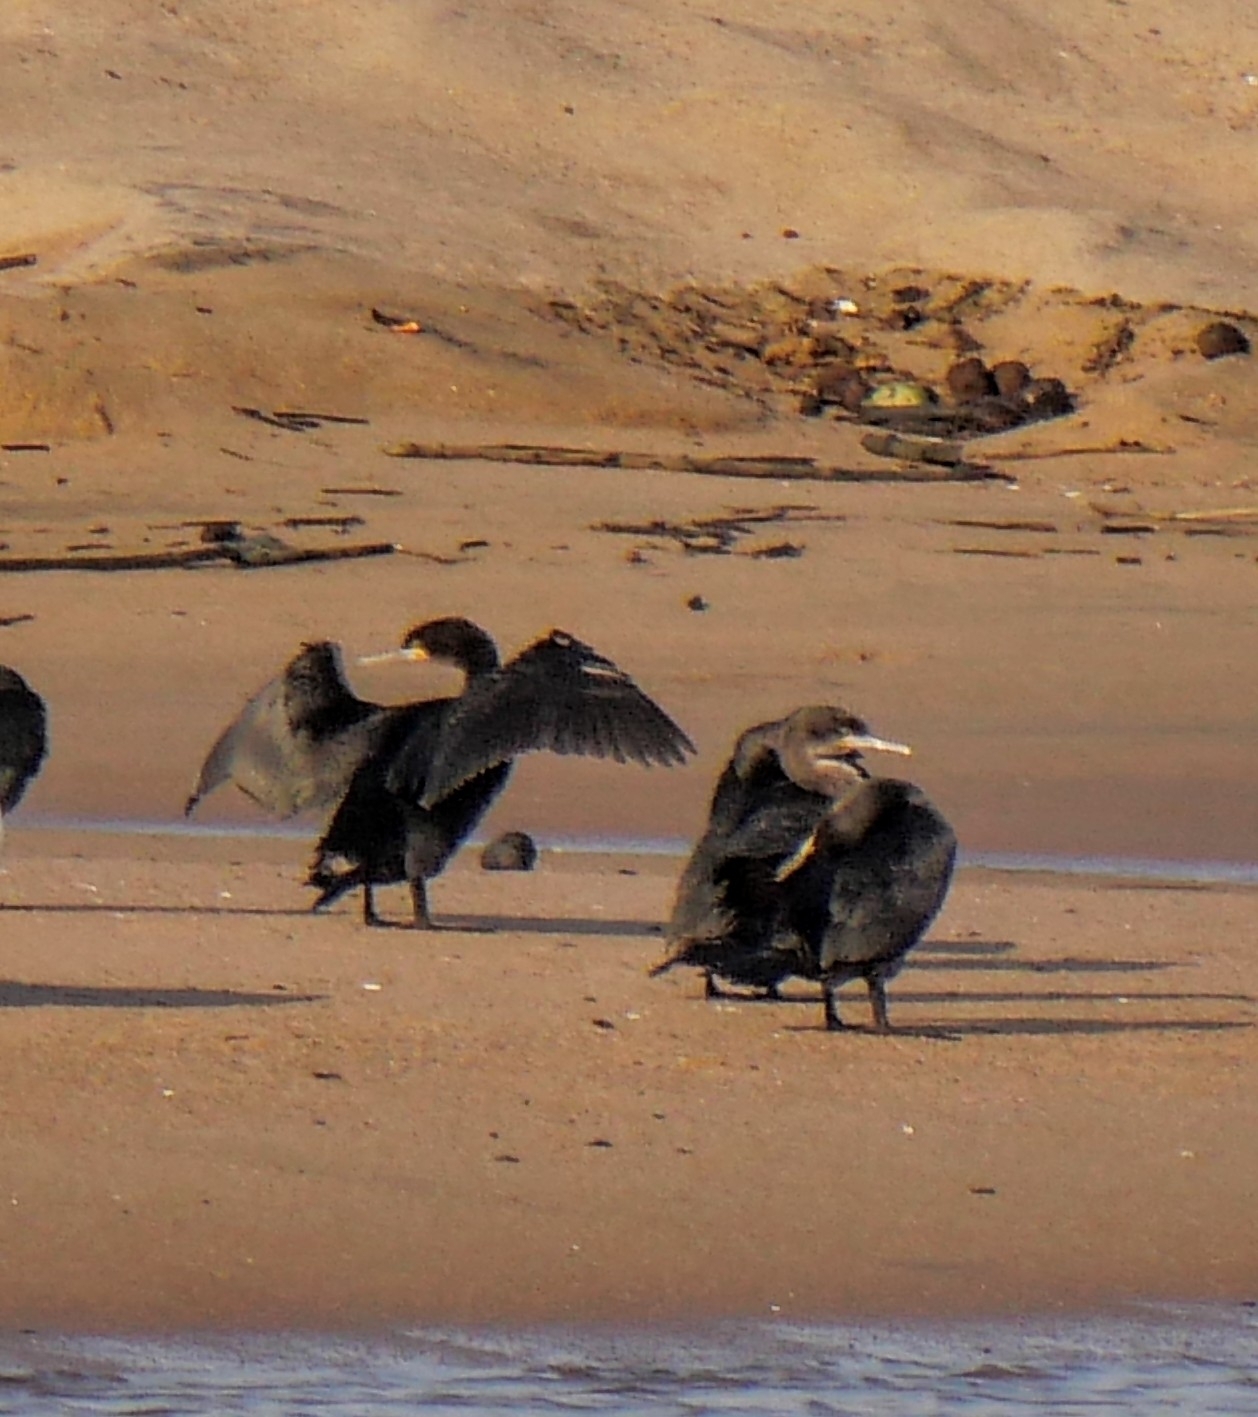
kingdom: Animalia
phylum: Chordata
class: Aves
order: Suliformes
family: Phalacrocoracidae
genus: Phalacrocorax
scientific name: Phalacrocorax capensis
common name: Cape cormorant
